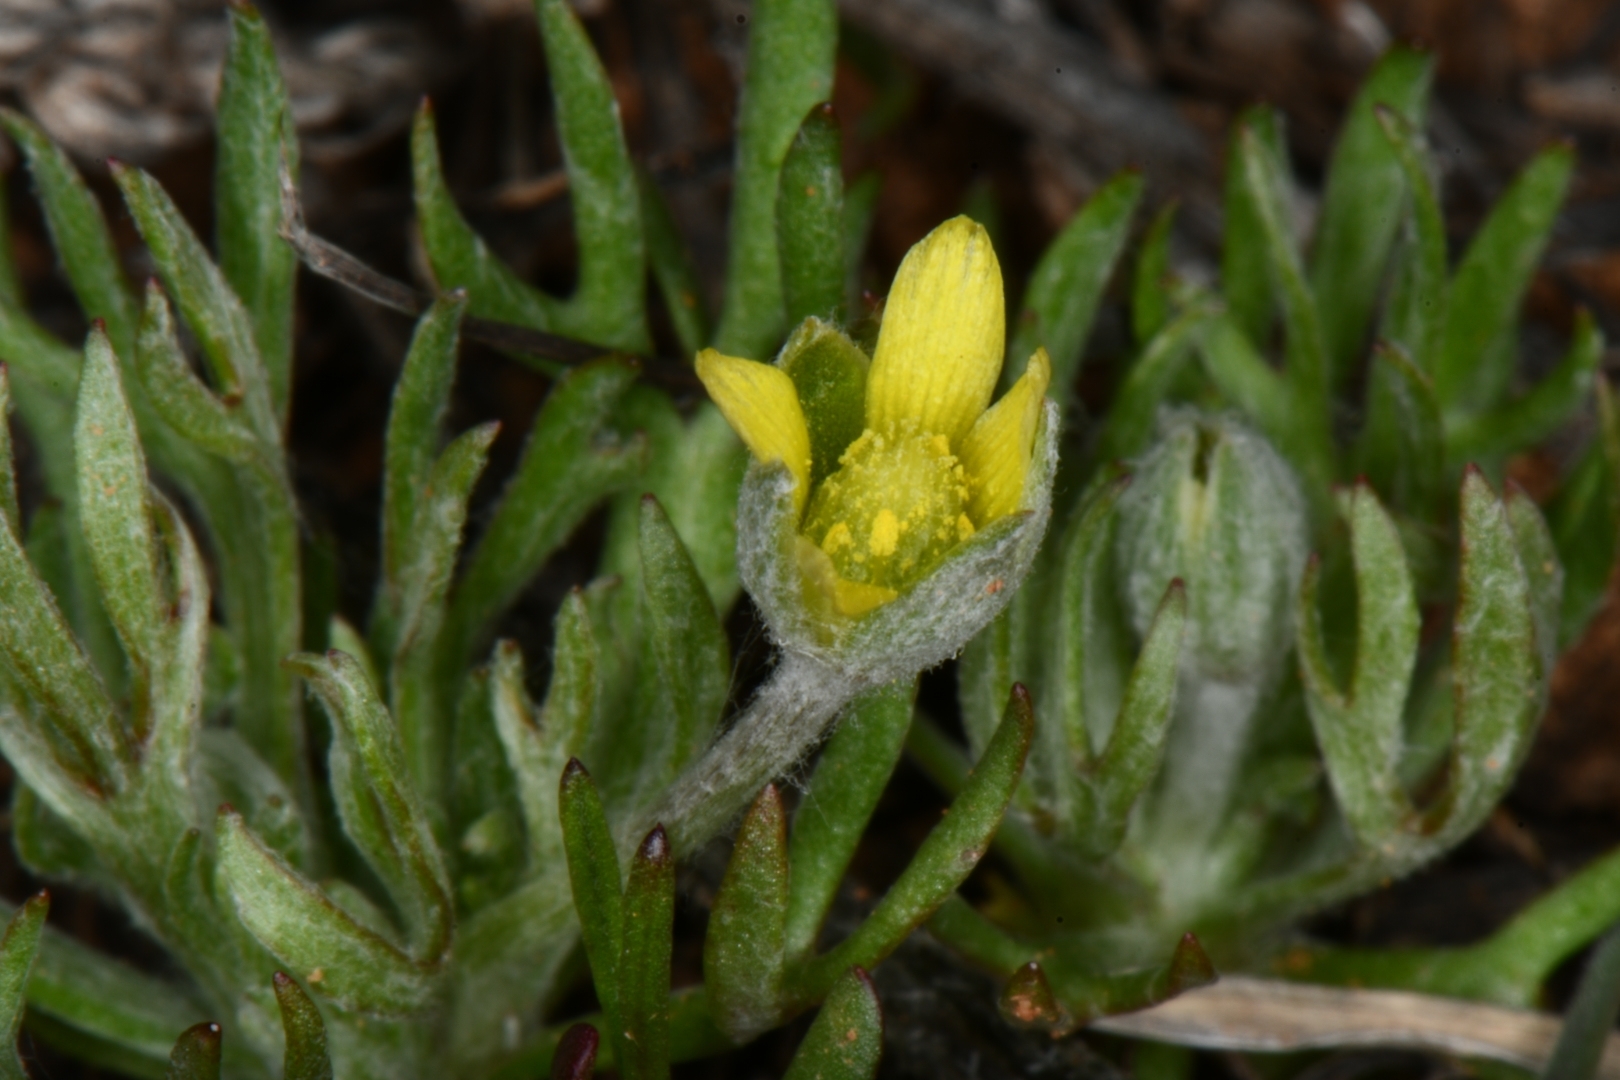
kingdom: Plantae
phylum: Tracheophyta
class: Magnoliopsida
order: Ranunculales
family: Ranunculaceae
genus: Ceratocephala
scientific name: Ceratocephala orthoceras
